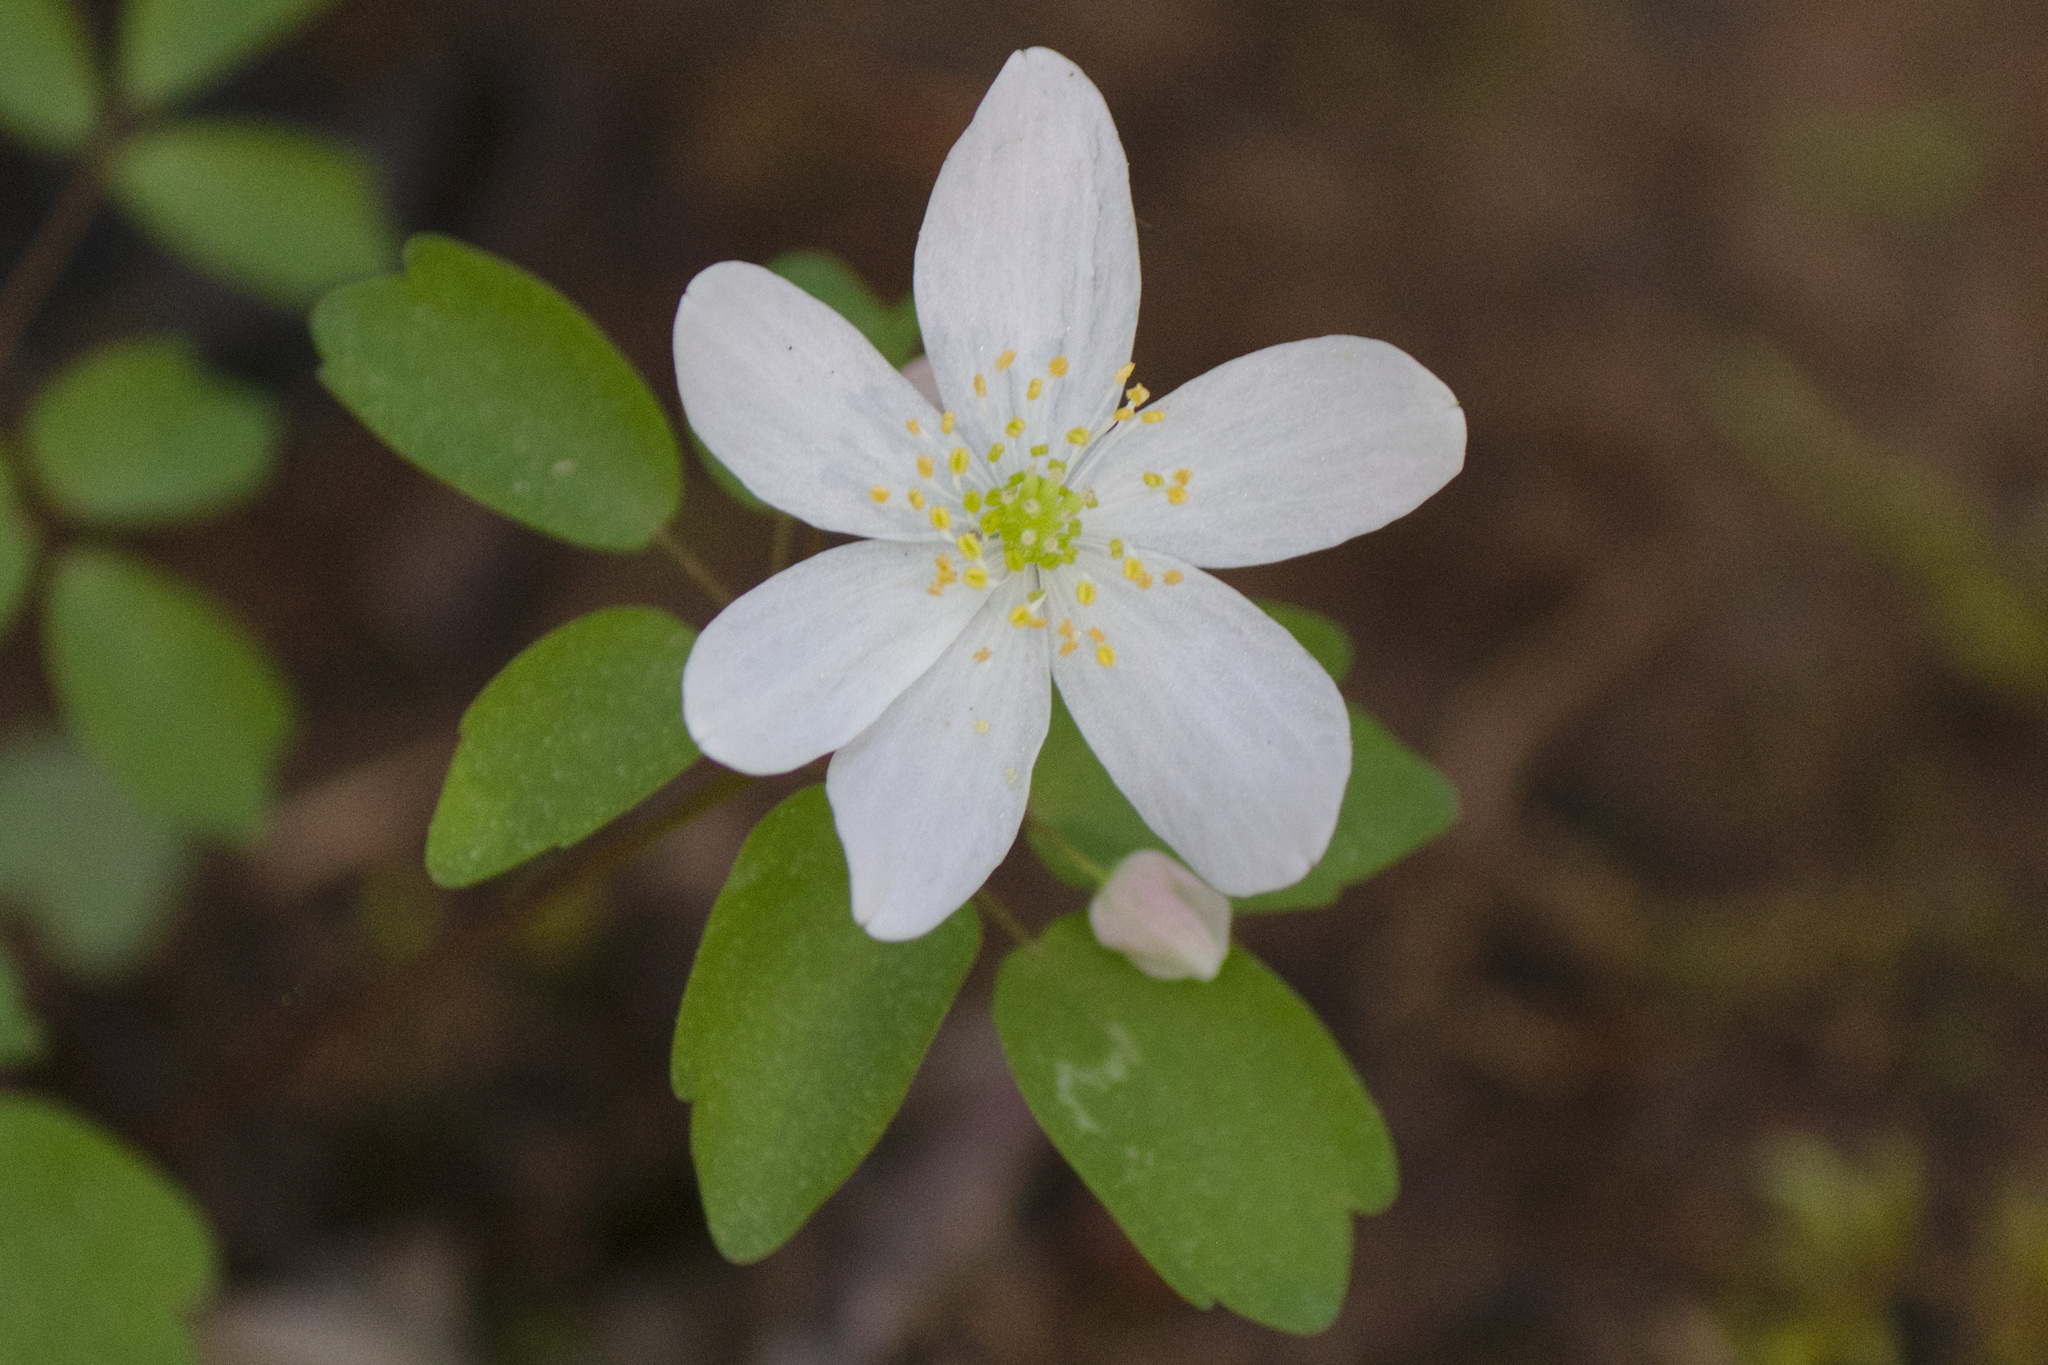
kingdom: Plantae
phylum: Tracheophyta
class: Magnoliopsida
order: Ranunculales
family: Ranunculaceae
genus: Thalictrum
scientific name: Thalictrum thalictroides
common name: Rue-anemone
